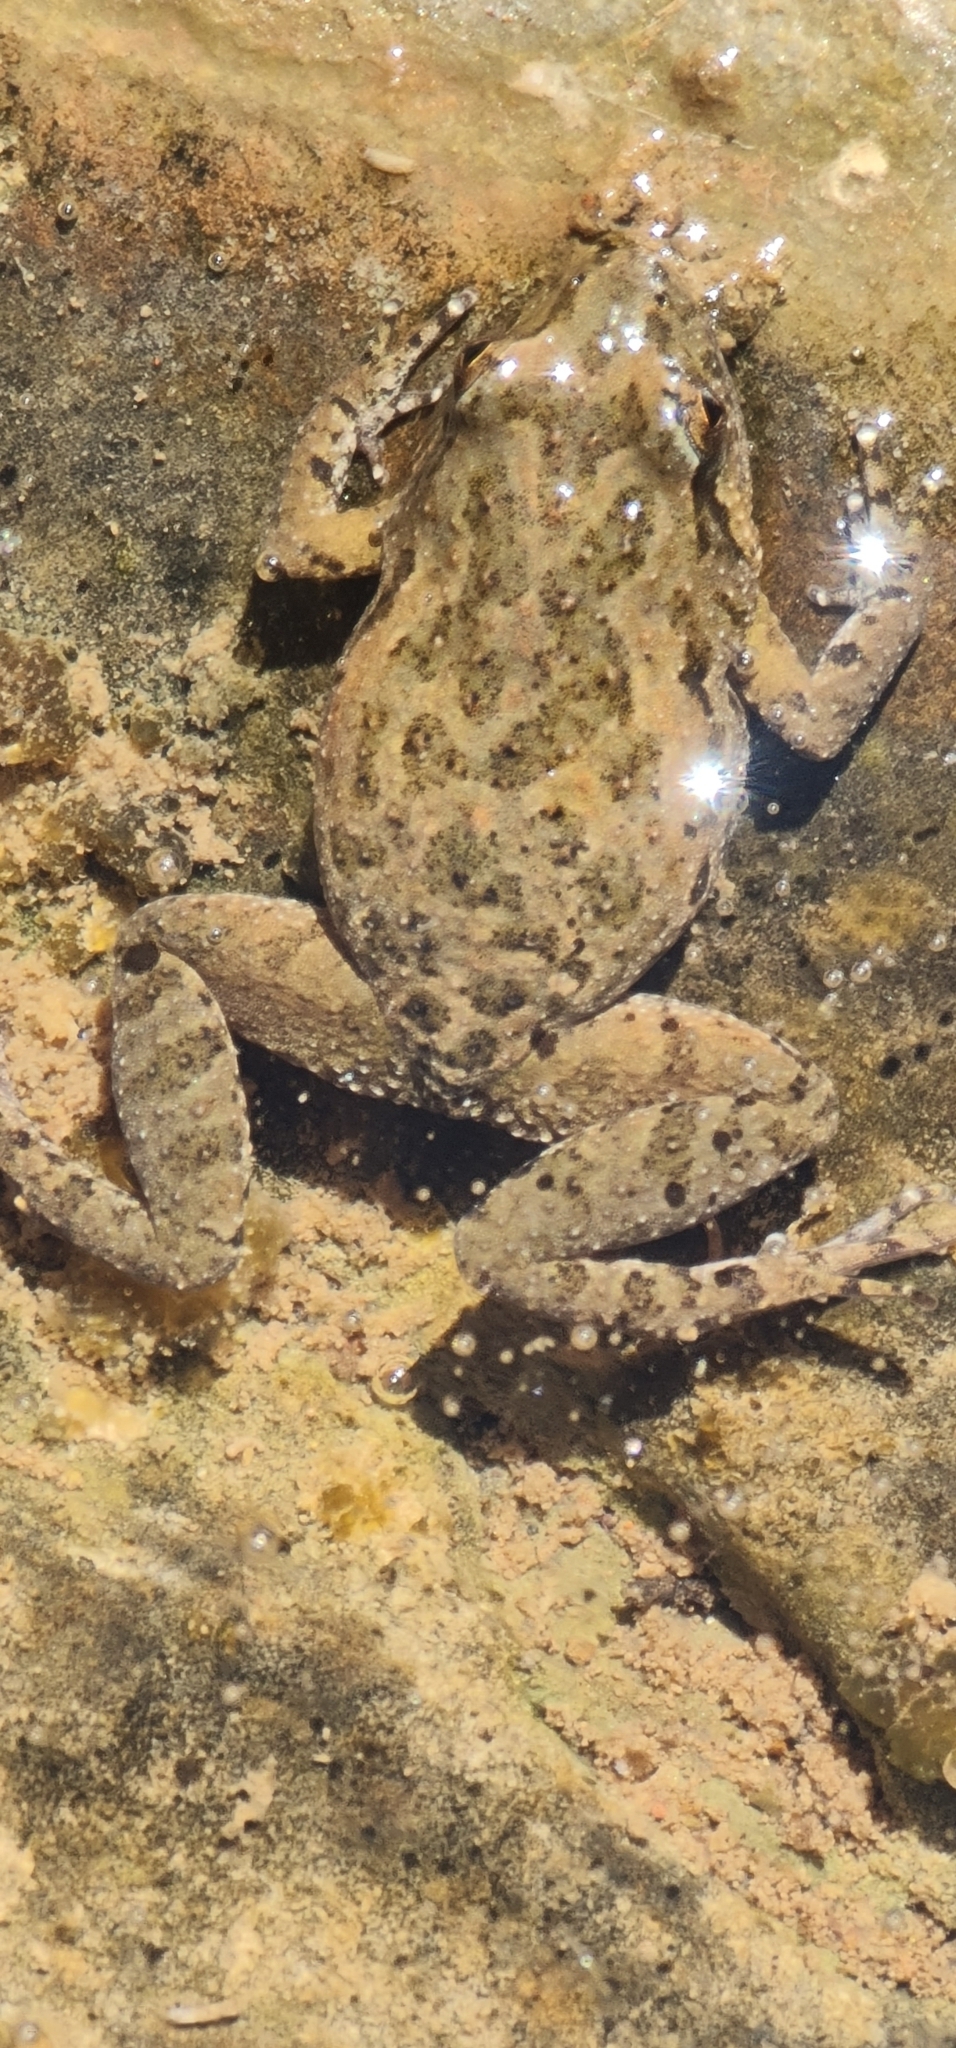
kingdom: Animalia
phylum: Chordata
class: Amphibia
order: Anura
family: Myobatrachidae
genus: Crinia
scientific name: Crinia flindersensis
